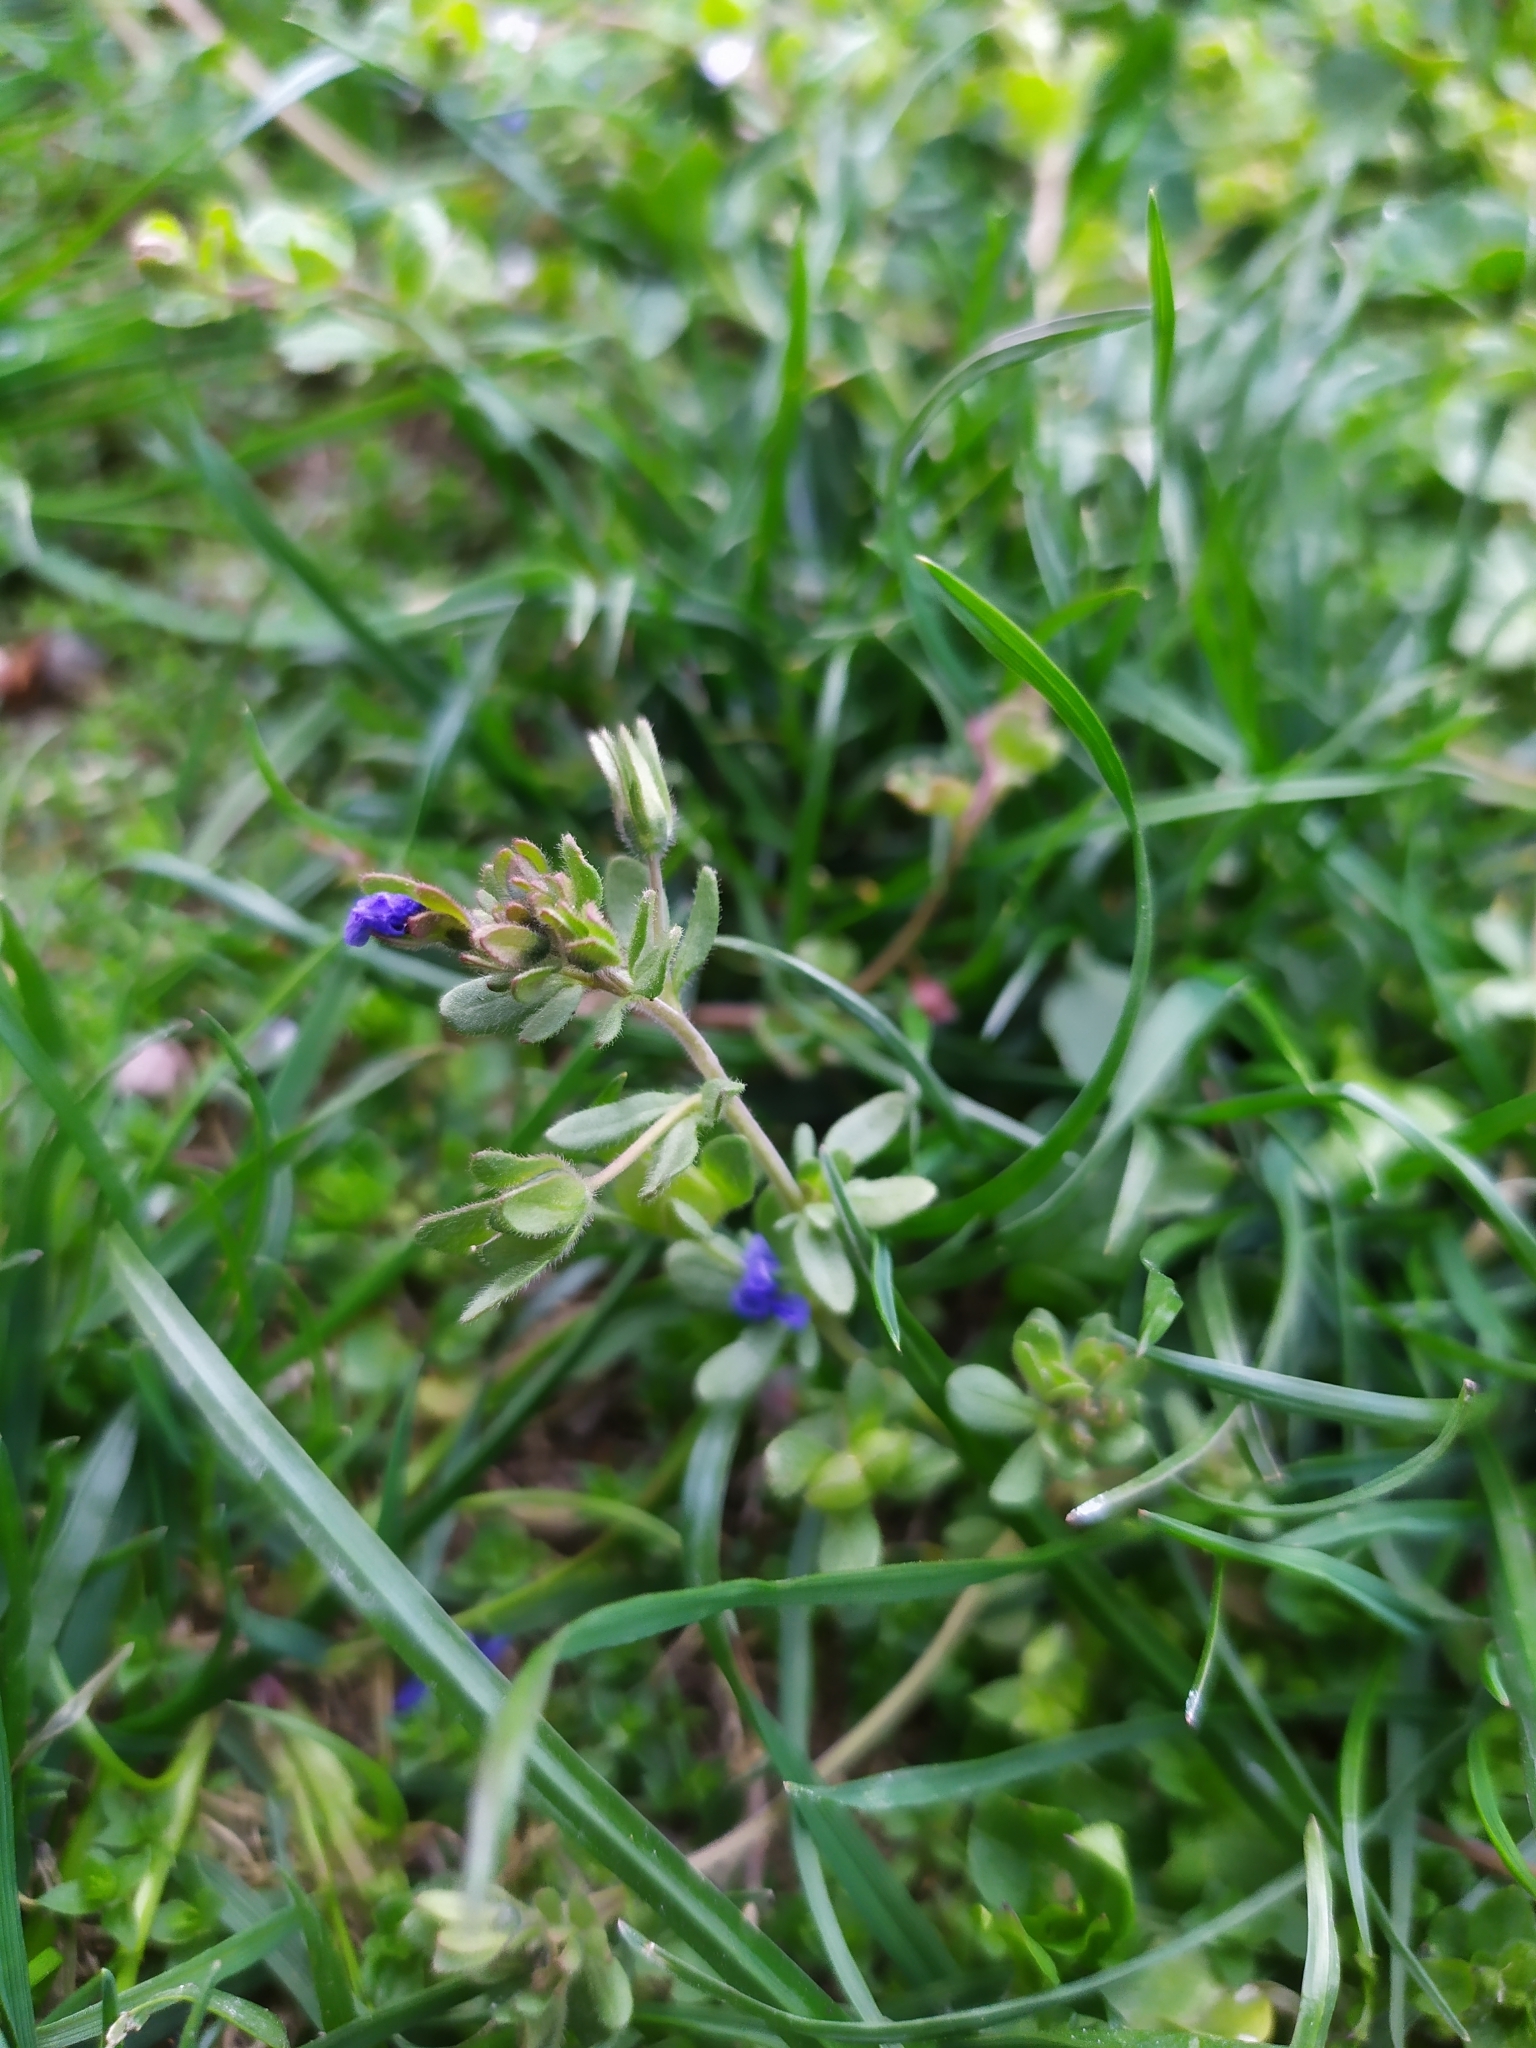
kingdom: Plantae
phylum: Tracheophyta
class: Magnoliopsida
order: Lamiales
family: Plantaginaceae
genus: Veronica
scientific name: Veronica triphyllos
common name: Fingered speedwell
